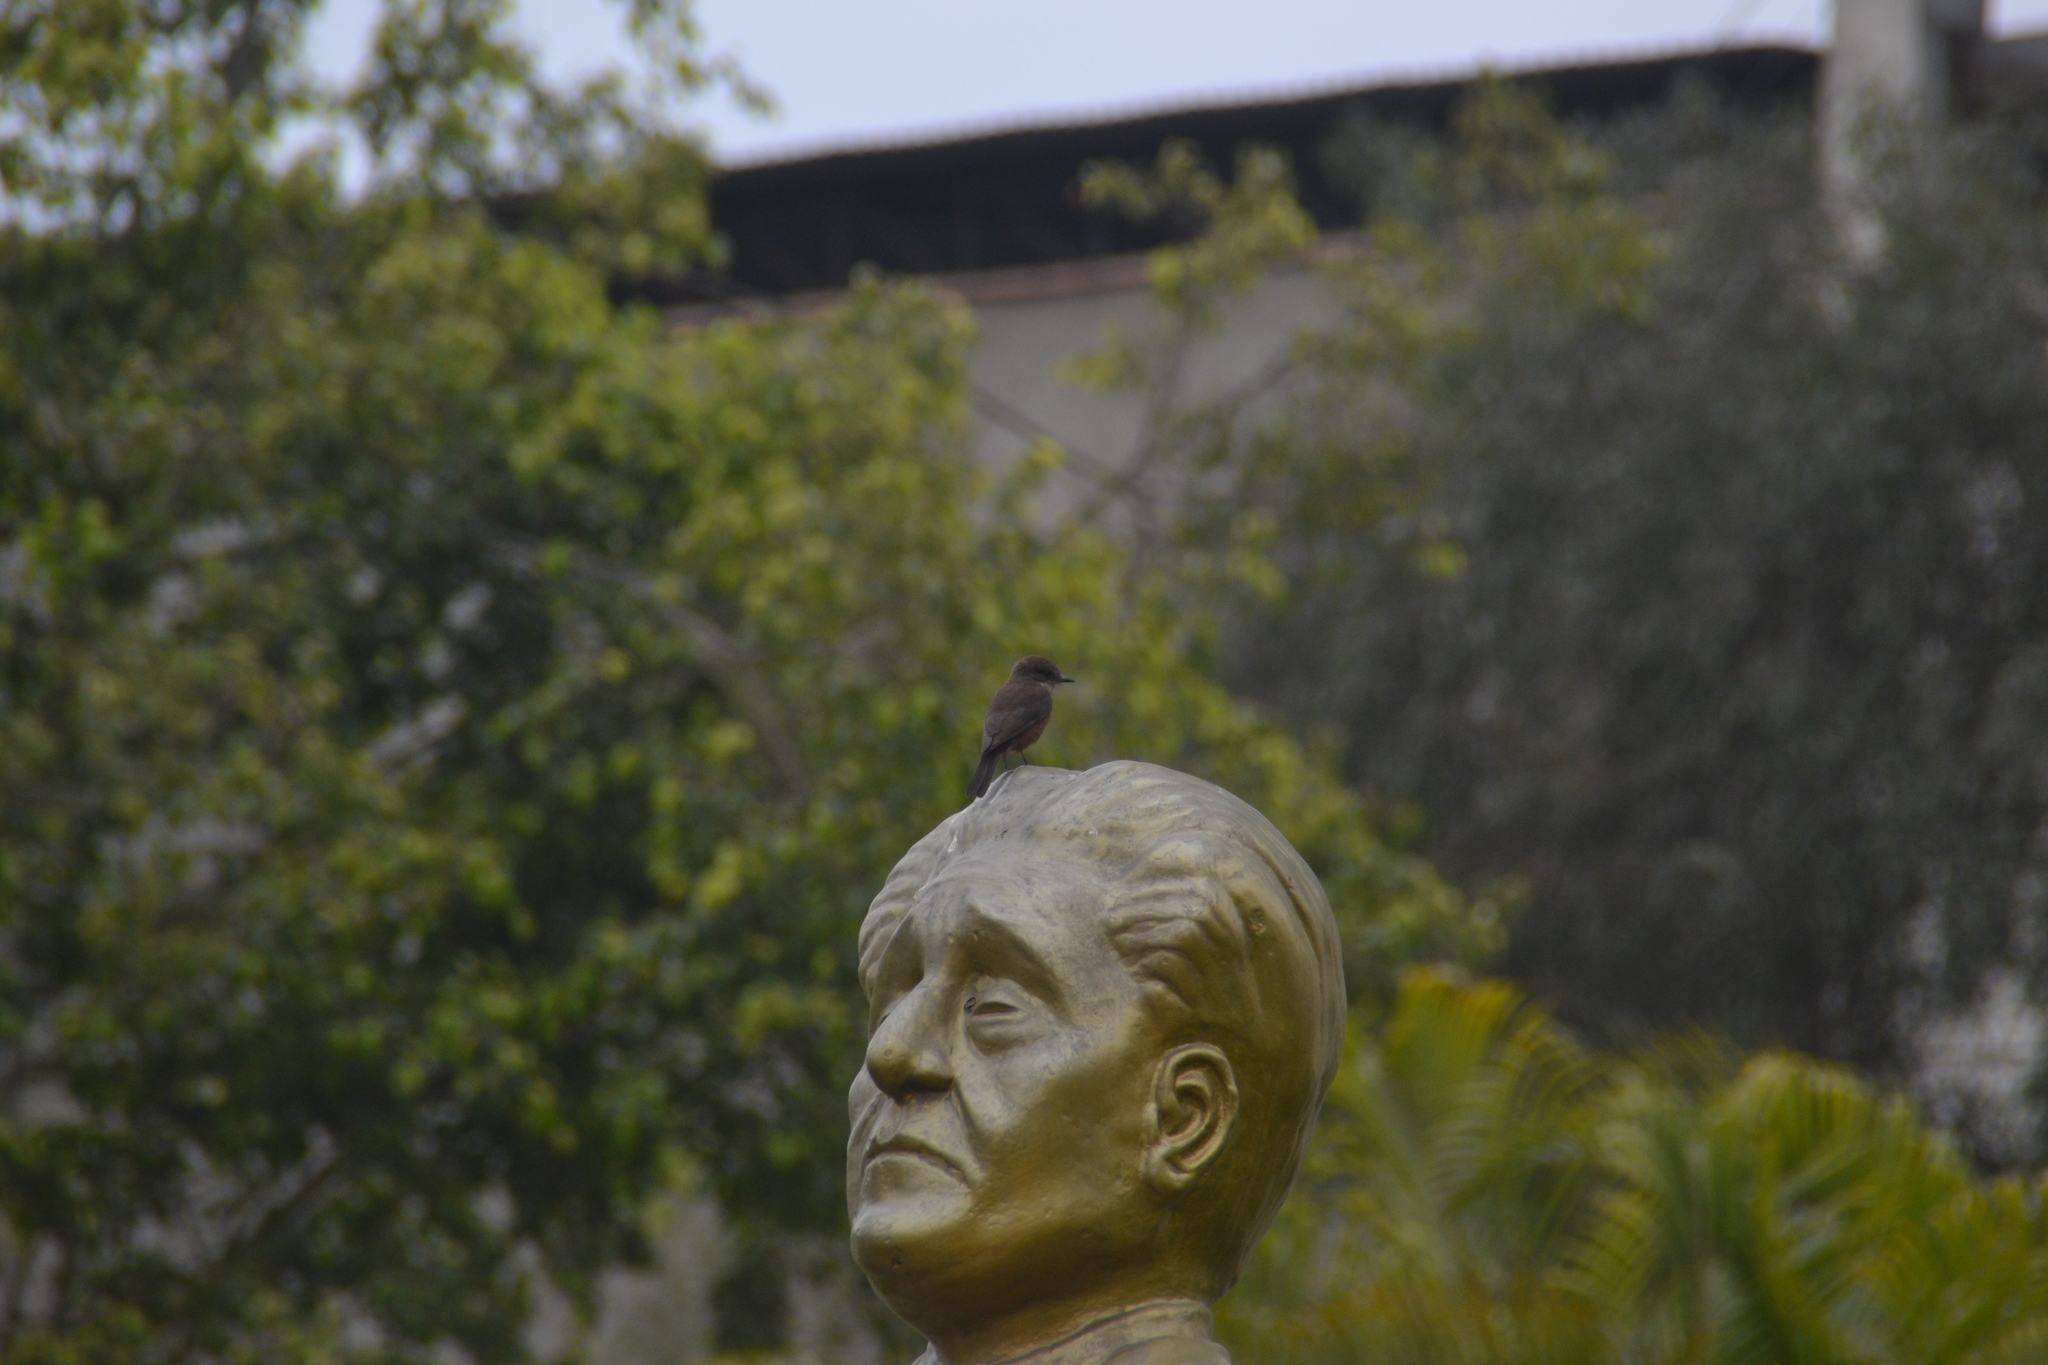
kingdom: Animalia
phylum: Chordata
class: Aves
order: Passeriformes
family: Tyrannidae
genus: Pyrocephalus
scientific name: Pyrocephalus rubinus
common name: Vermilion flycatcher
